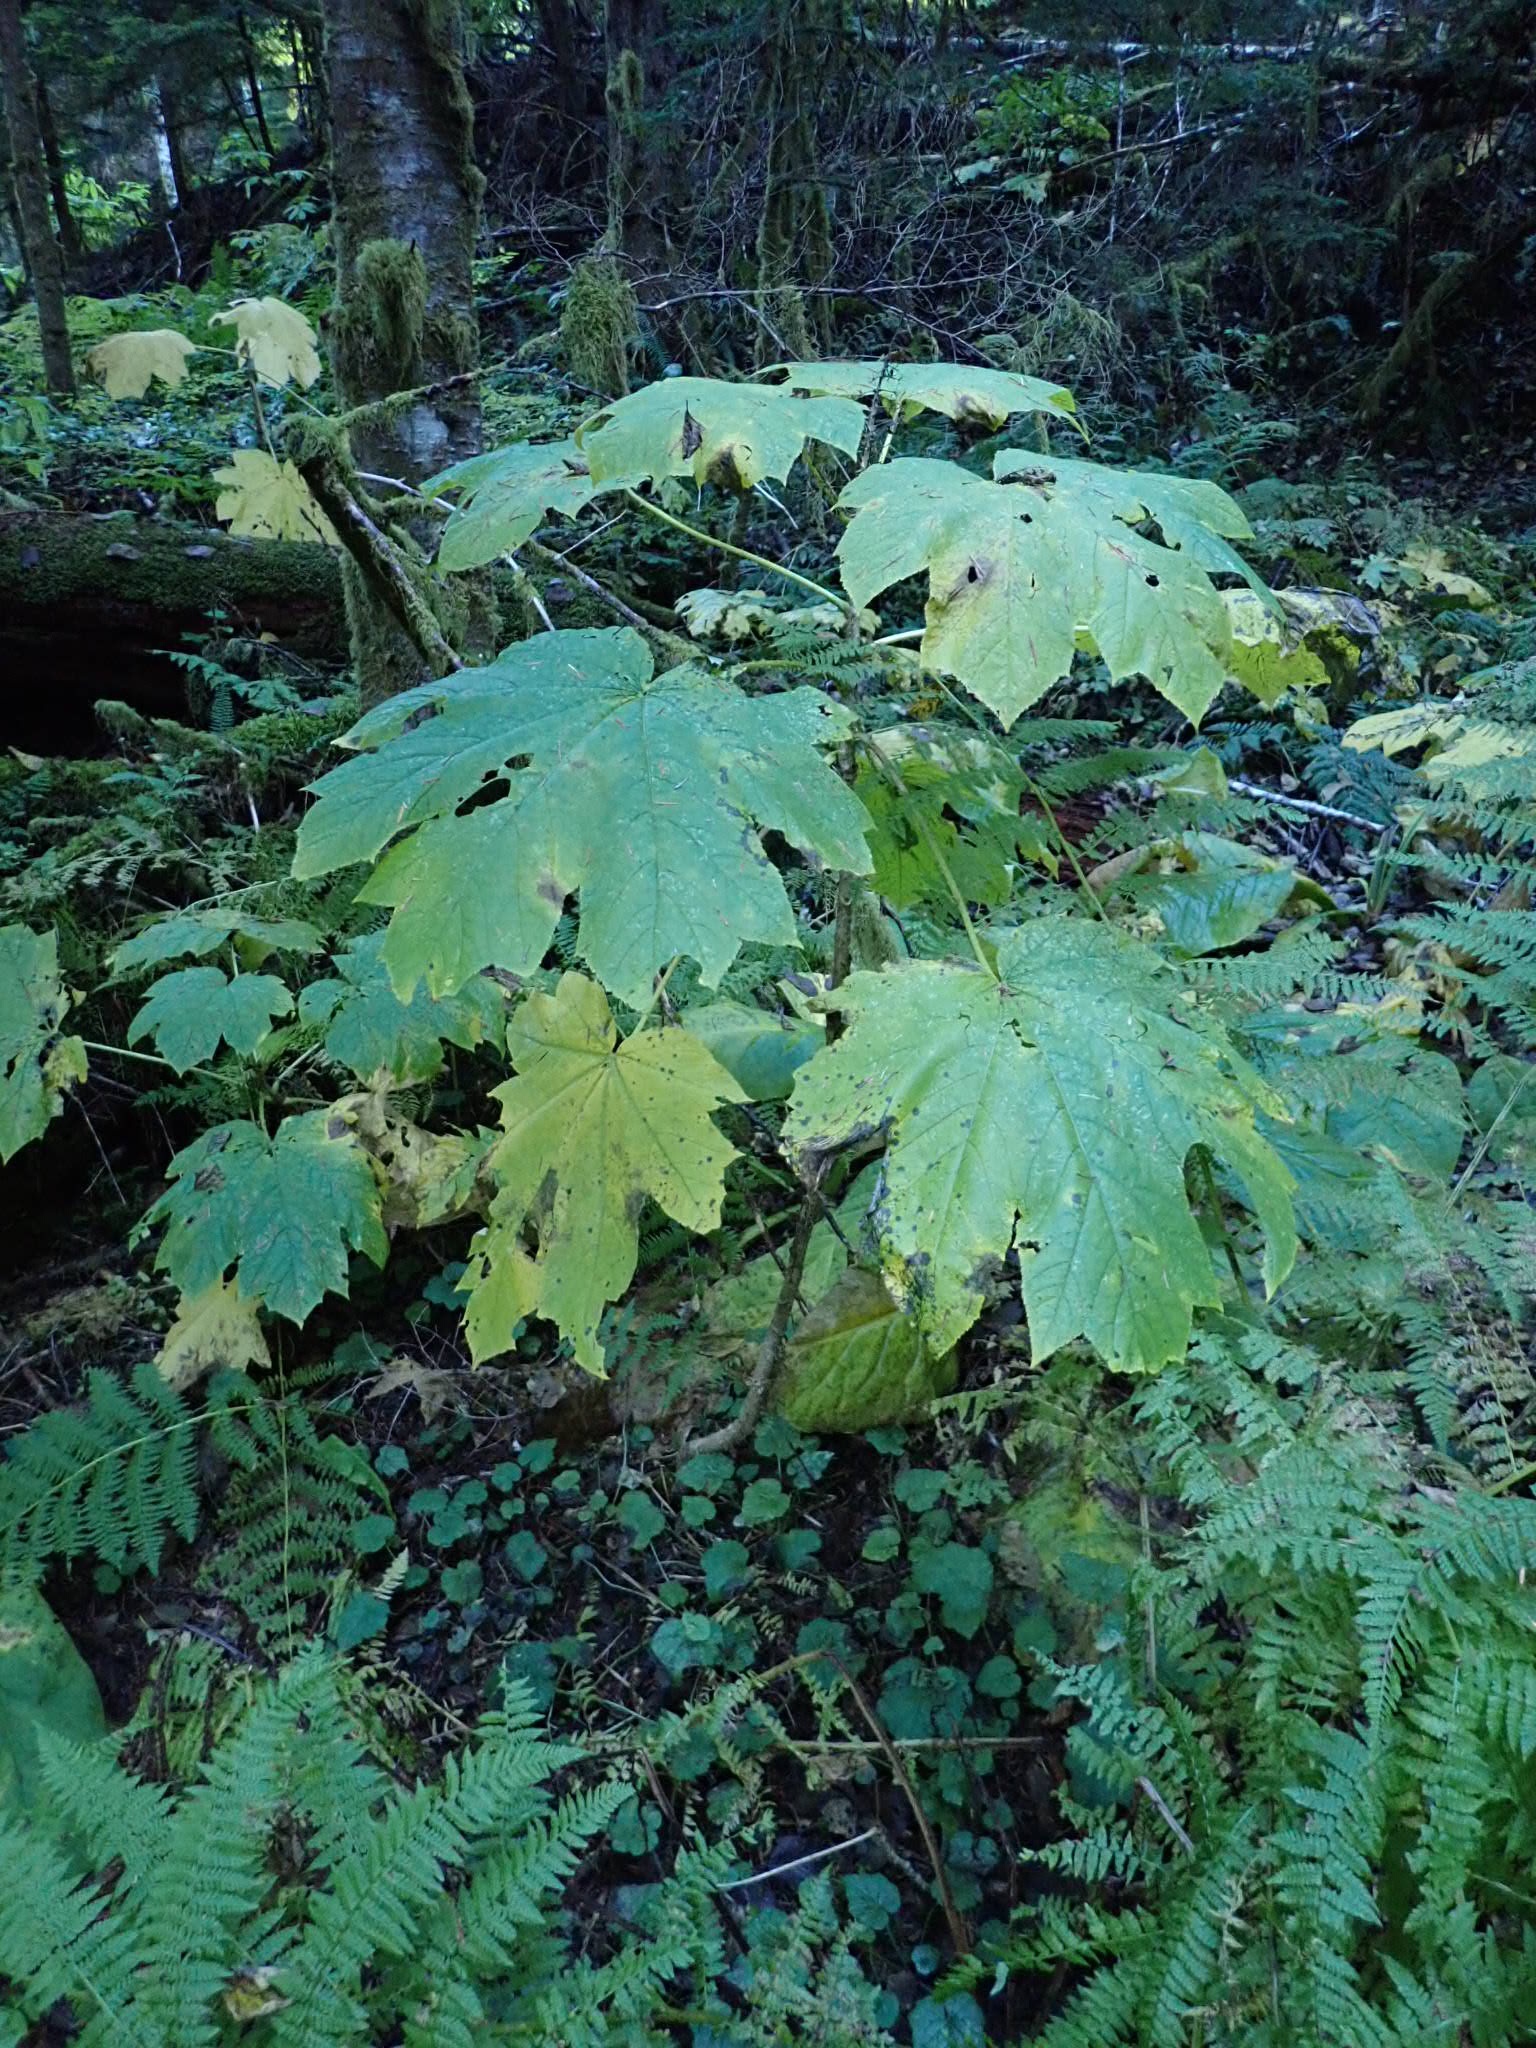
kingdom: Plantae
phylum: Tracheophyta
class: Magnoliopsida
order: Apiales
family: Araliaceae
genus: Oplopanax
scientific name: Oplopanax horridus
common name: Devil's walking-stick
